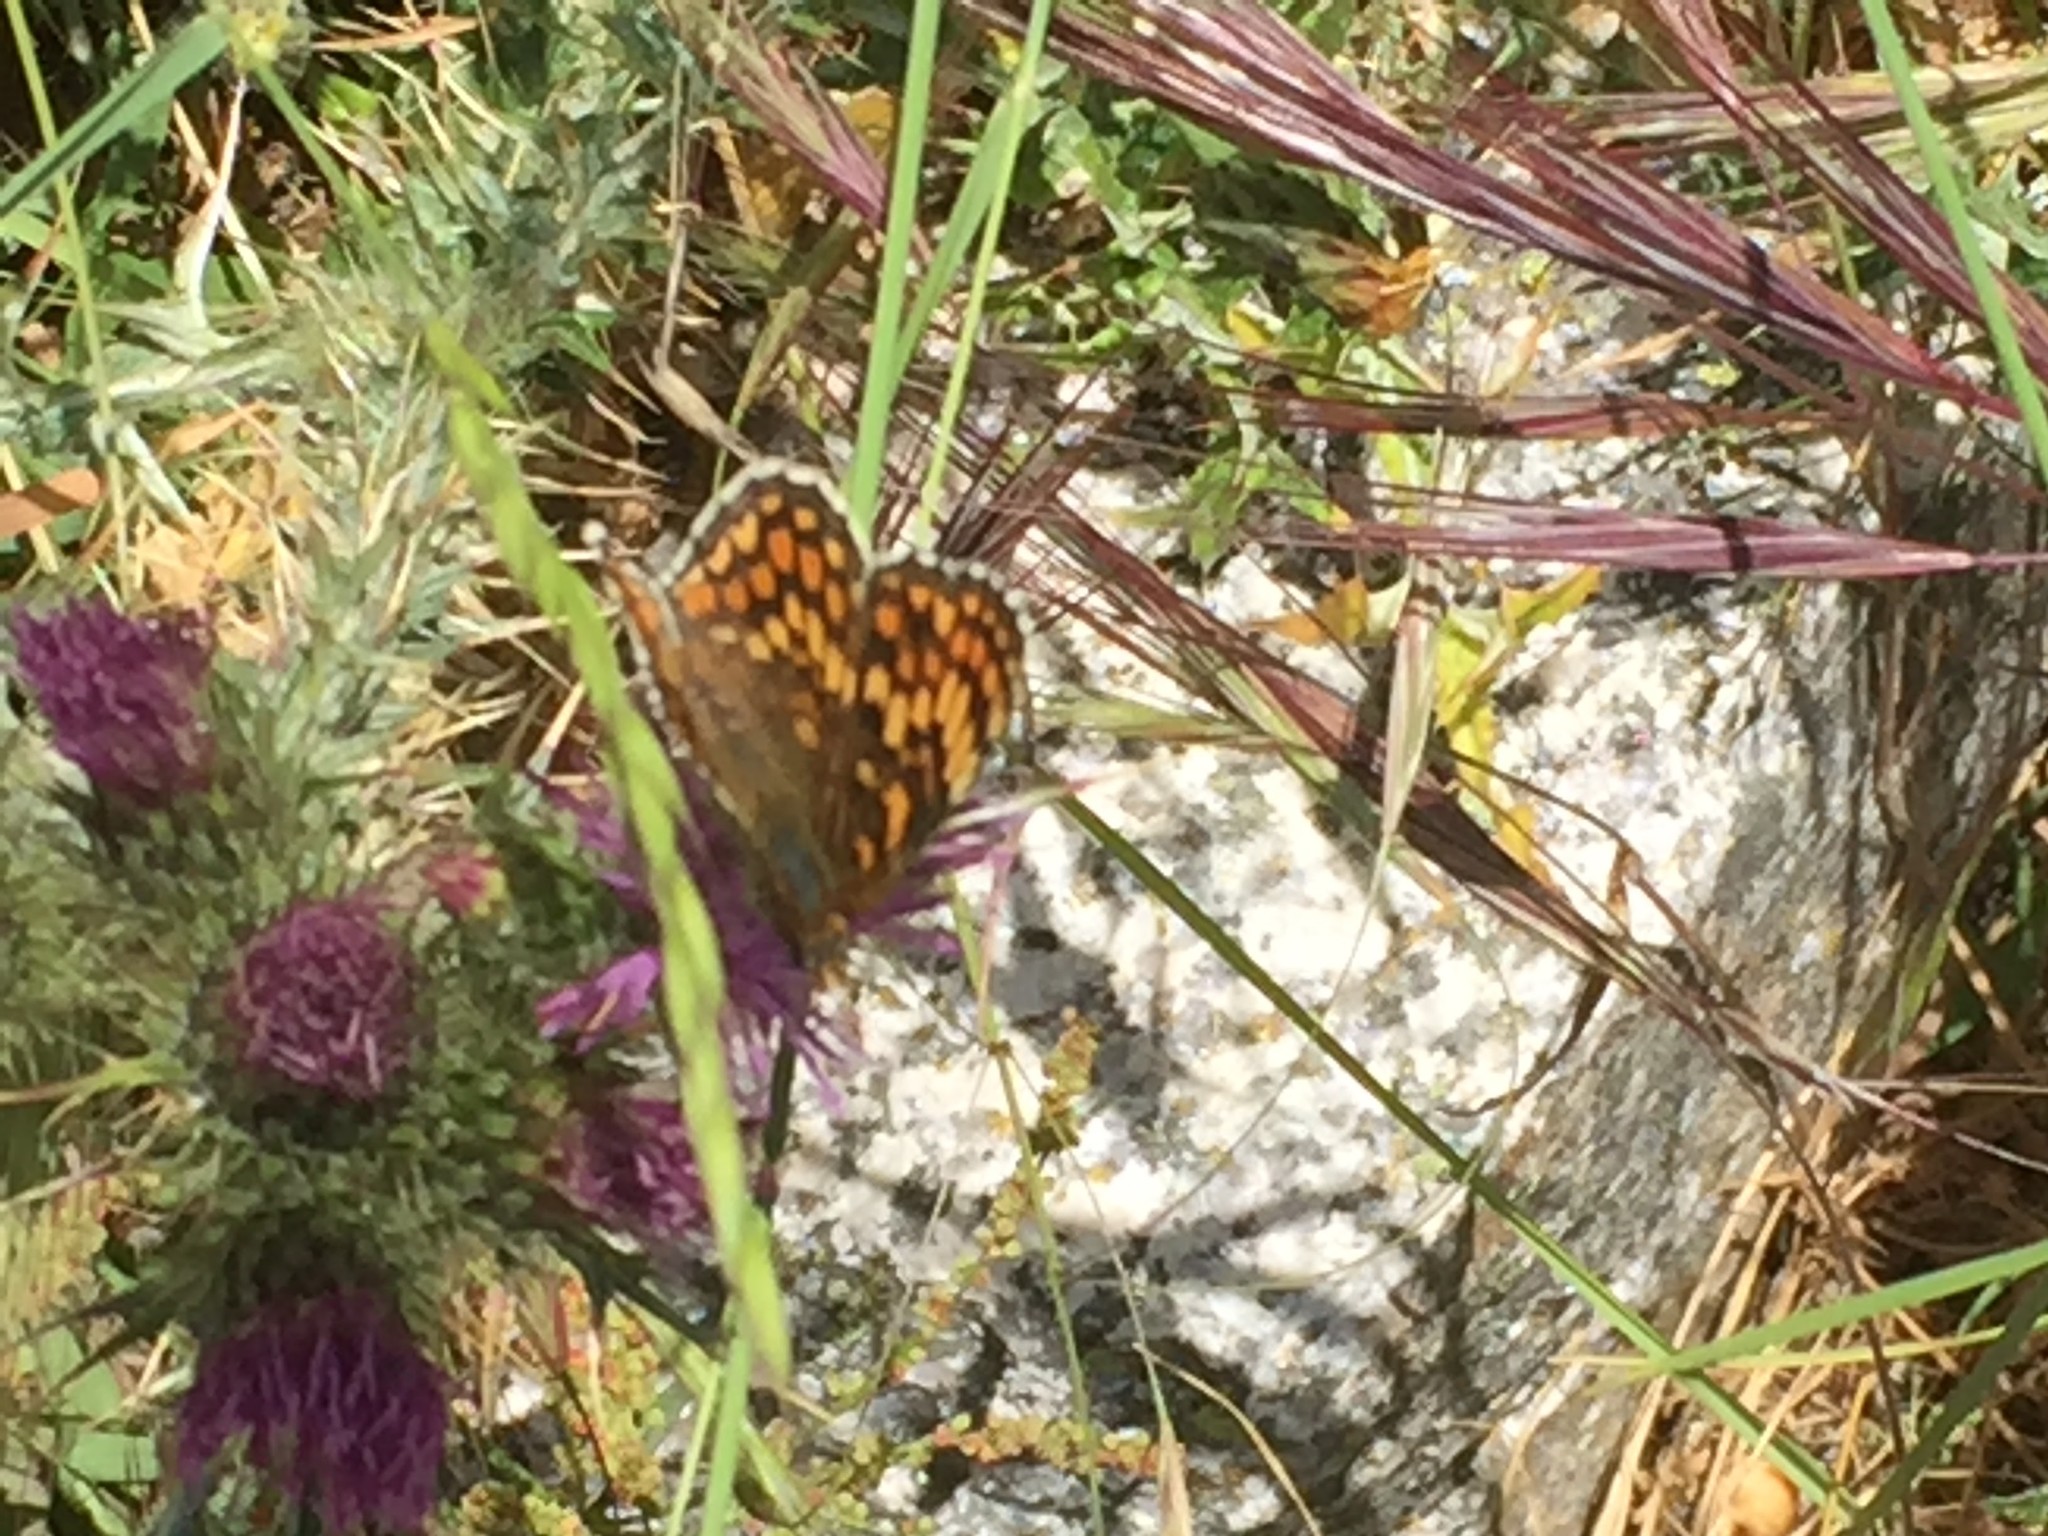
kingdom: Animalia
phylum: Arthropoda
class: Insecta
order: Lepidoptera
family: Nymphalidae
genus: Melitaea
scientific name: Melitaea phoebe
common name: Knapweed fritillary
